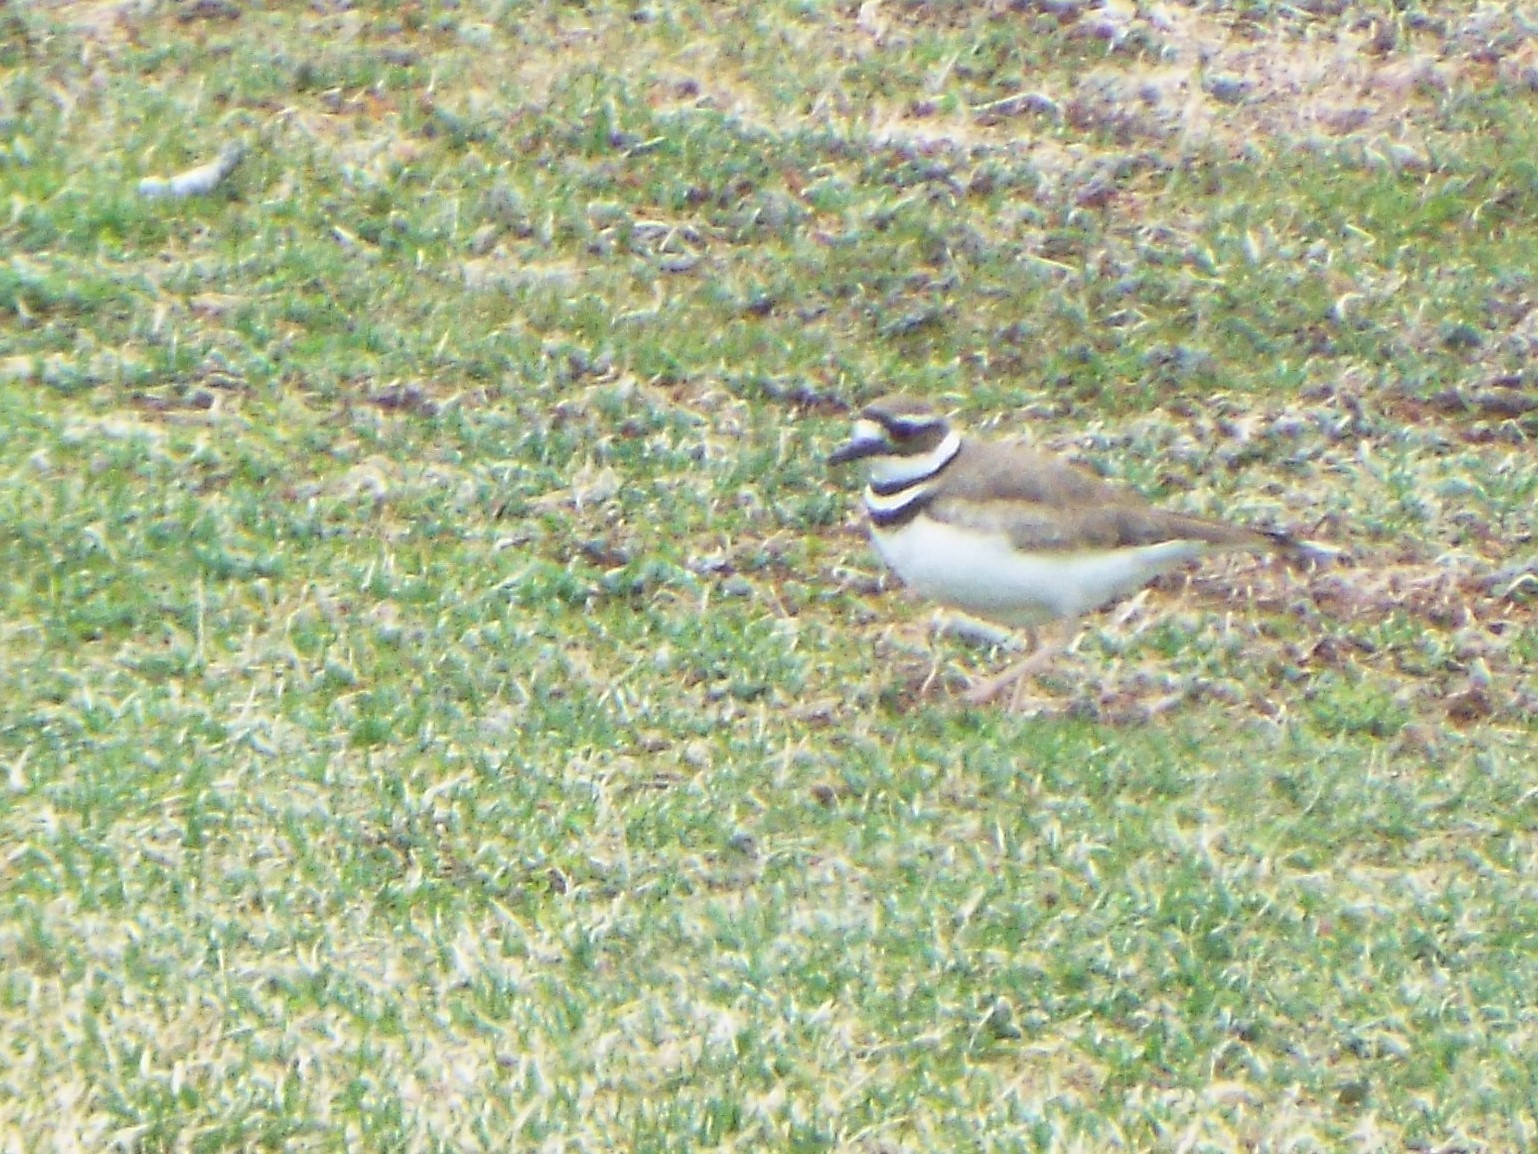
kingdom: Animalia
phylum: Chordata
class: Aves
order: Charadriiformes
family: Charadriidae
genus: Charadrius
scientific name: Charadrius vociferus
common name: Killdeer
